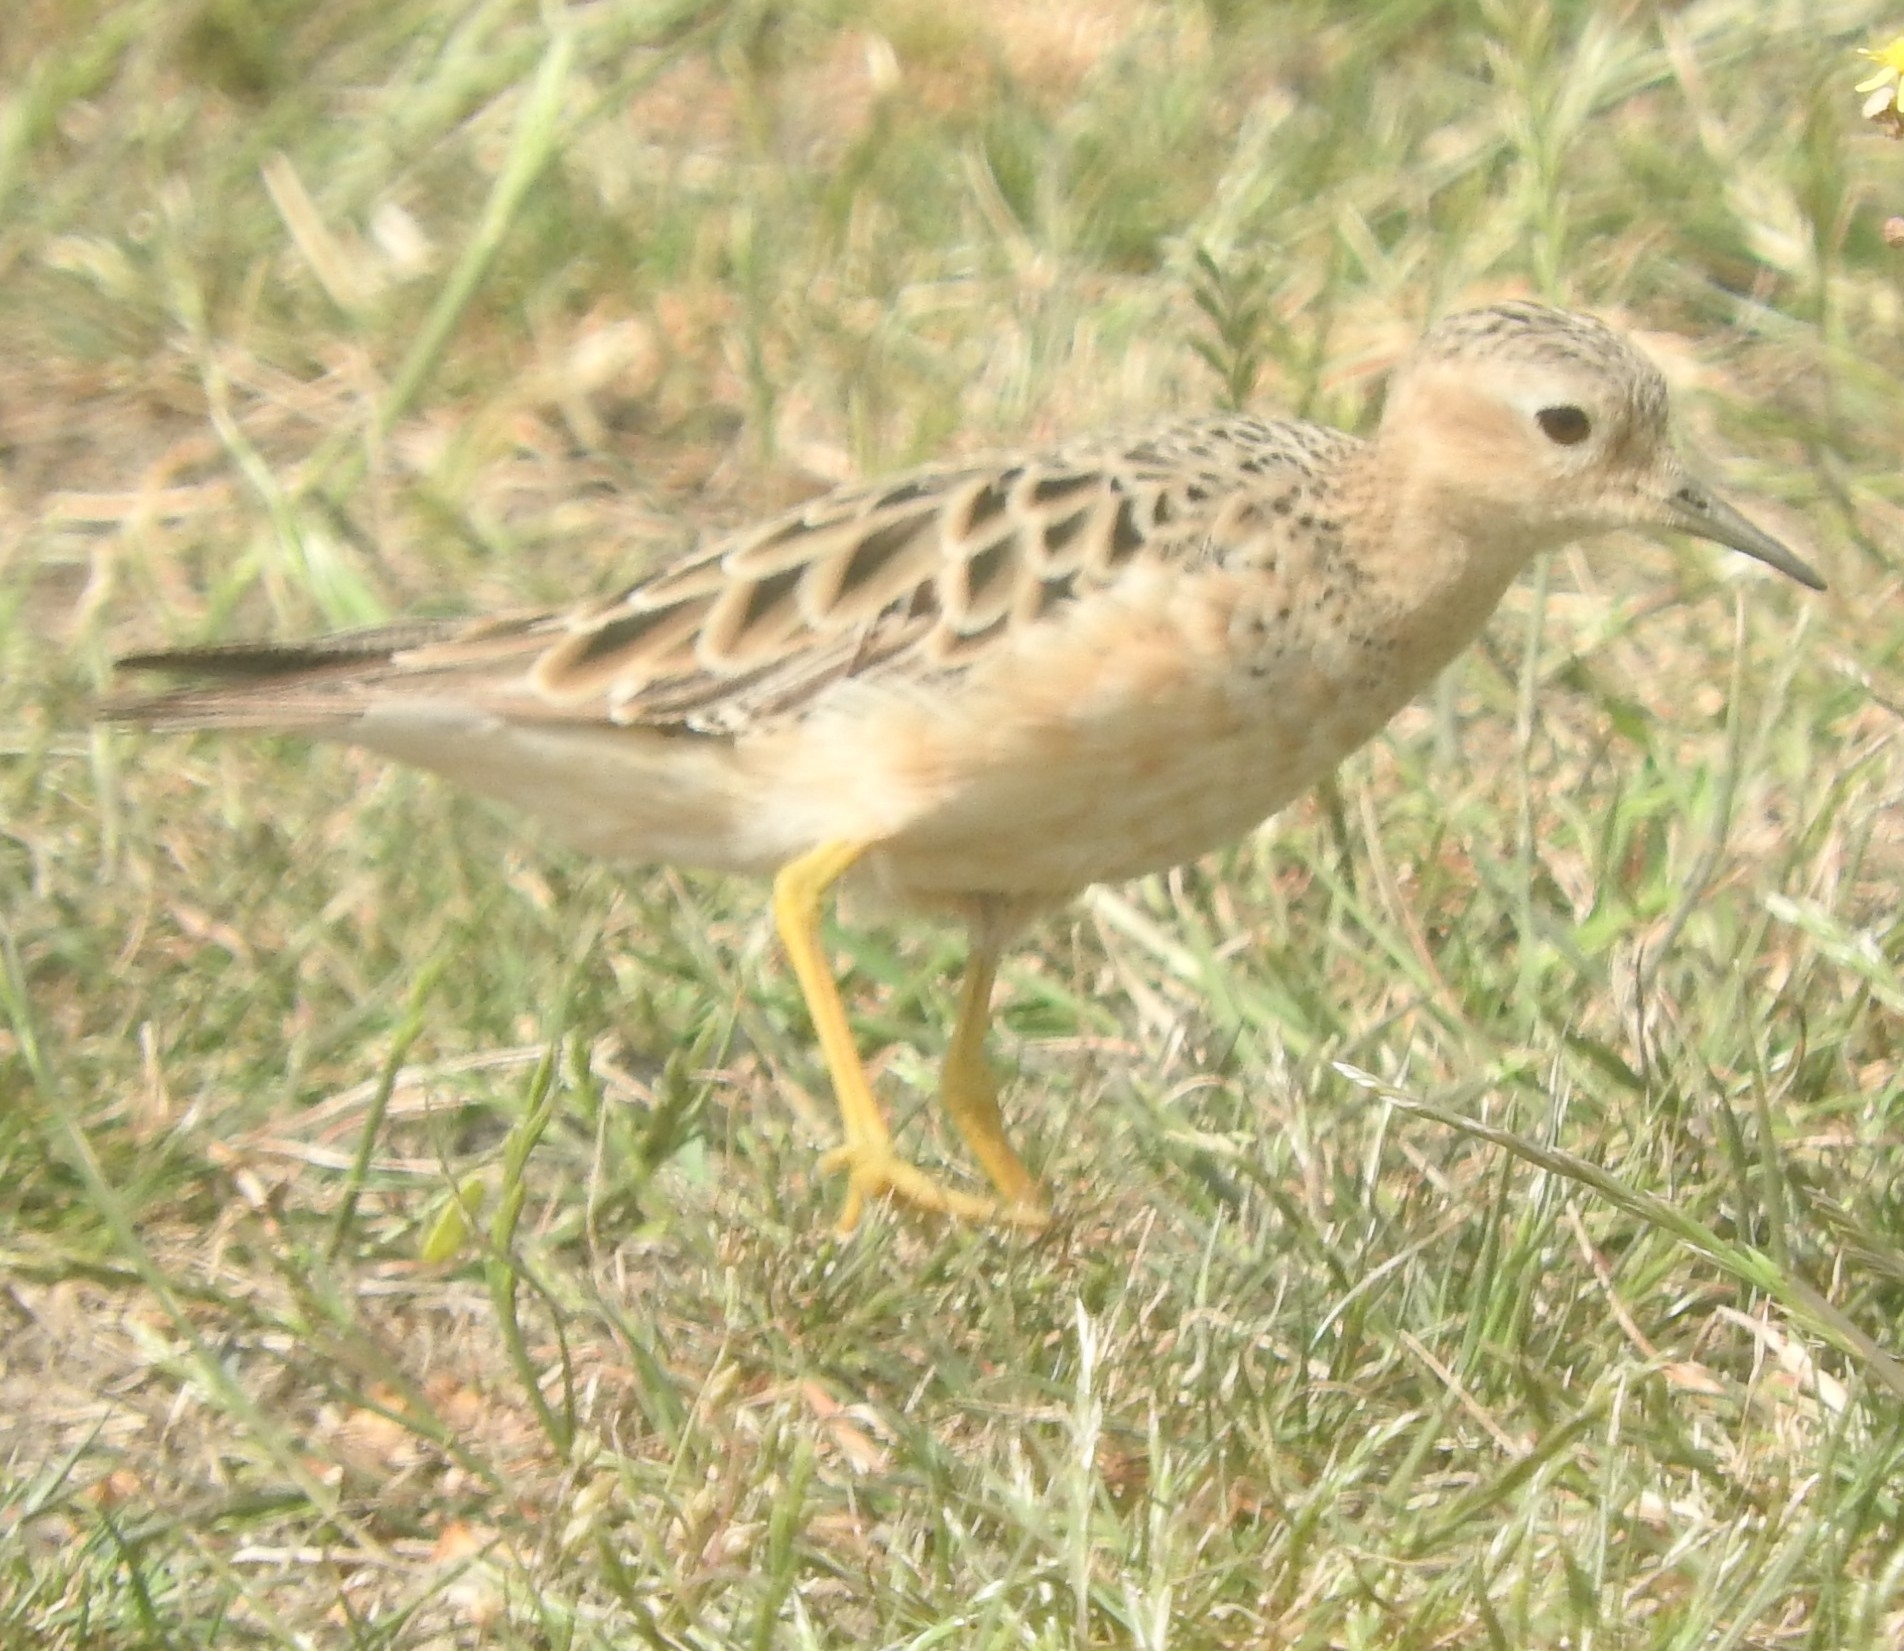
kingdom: Animalia
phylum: Chordata
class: Aves
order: Charadriiformes
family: Scolopacidae
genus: Calidris
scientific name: Calidris subruficollis
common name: Buff-breasted sandpiper
